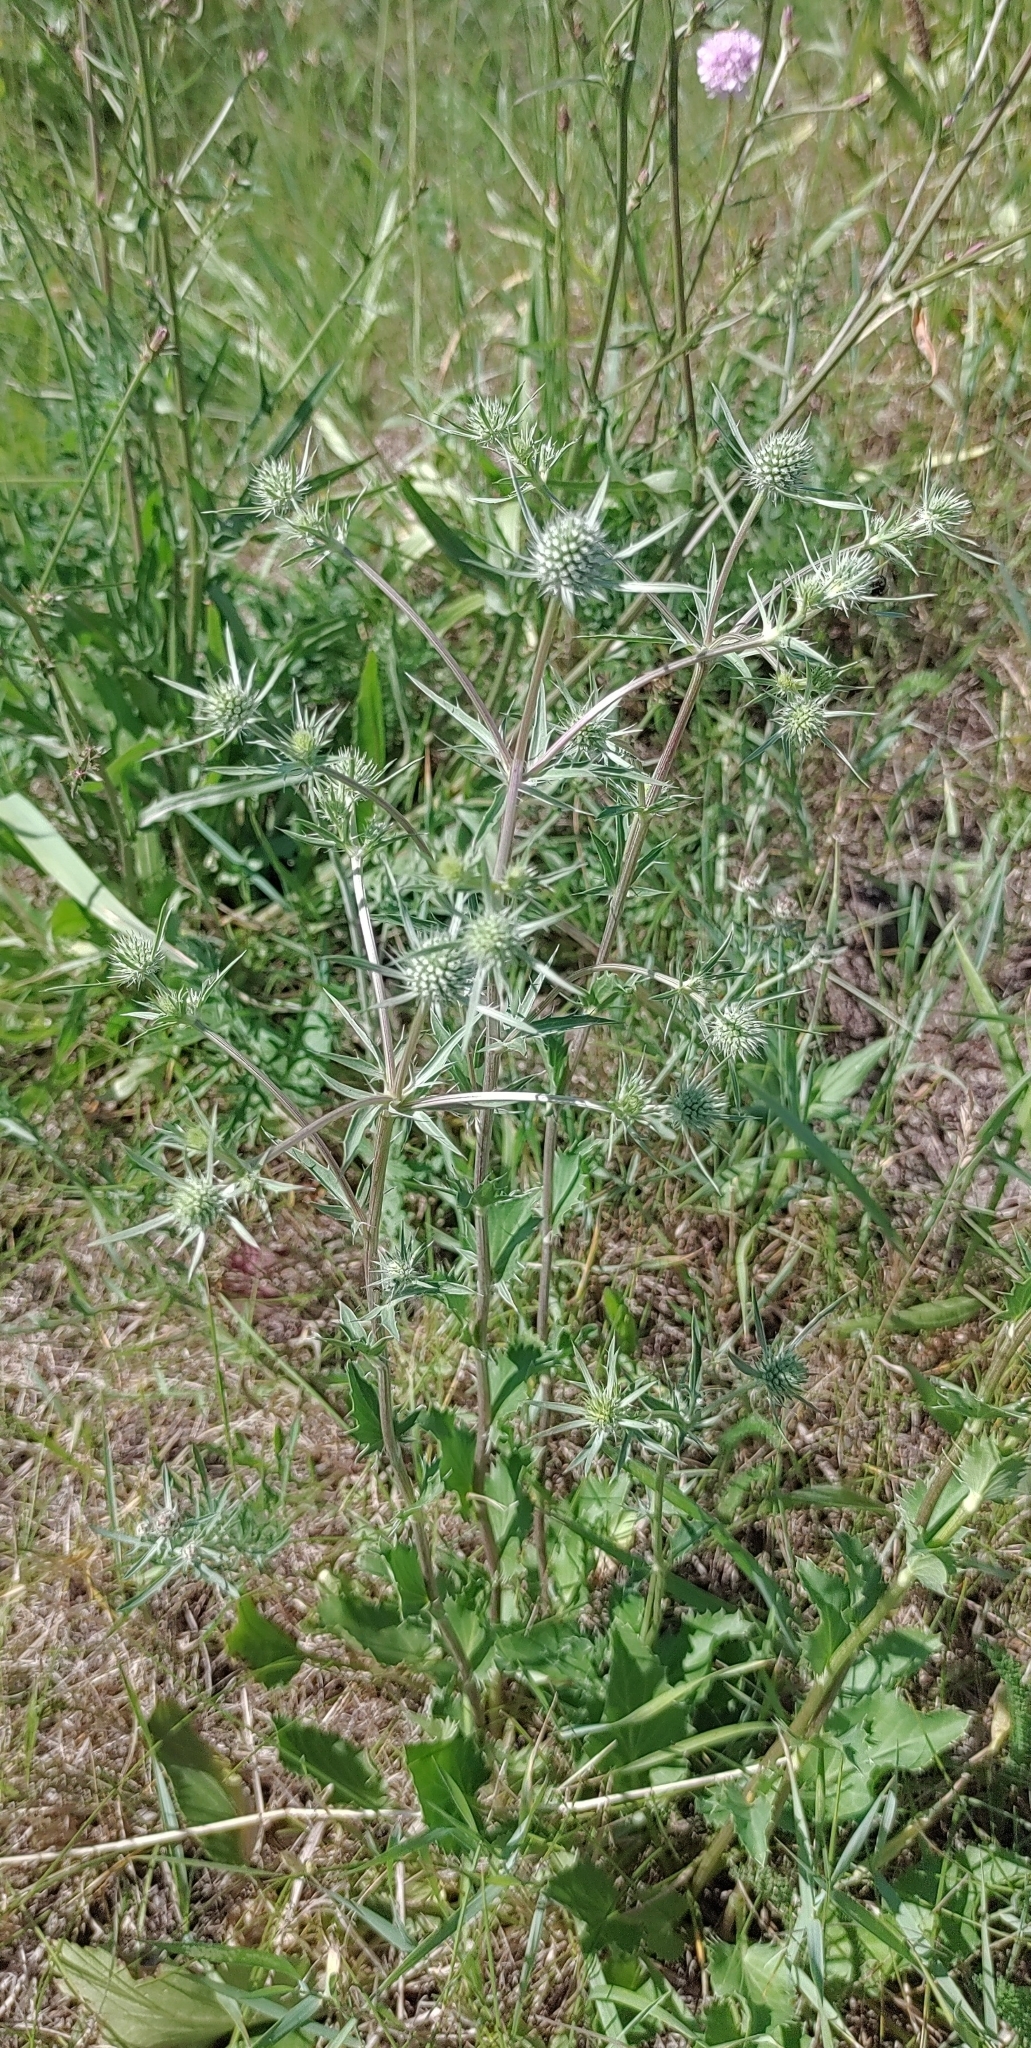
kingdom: Plantae
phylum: Tracheophyta
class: Magnoliopsida
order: Apiales
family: Apiaceae
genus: Eryngium
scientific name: Eryngium planum
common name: Blue eryngo
